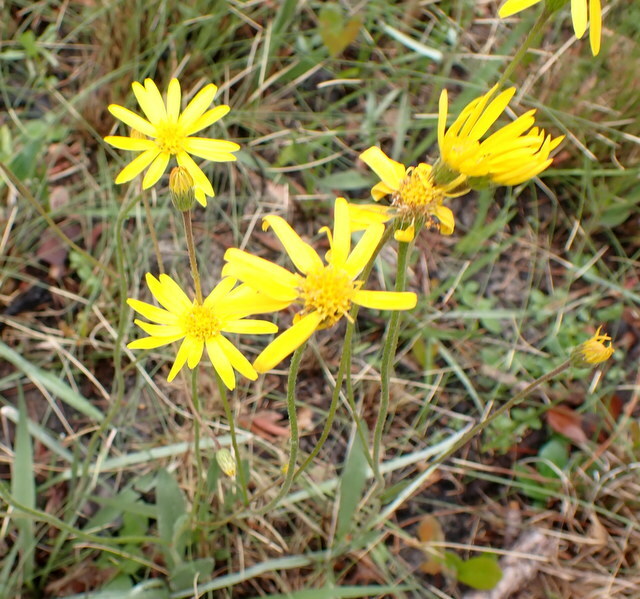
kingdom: Plantae
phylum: Tracheophyta
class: Magnoliopsida
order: Asterales
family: Asteraceae
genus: Pityopsis
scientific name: Pityopsis oligantha
